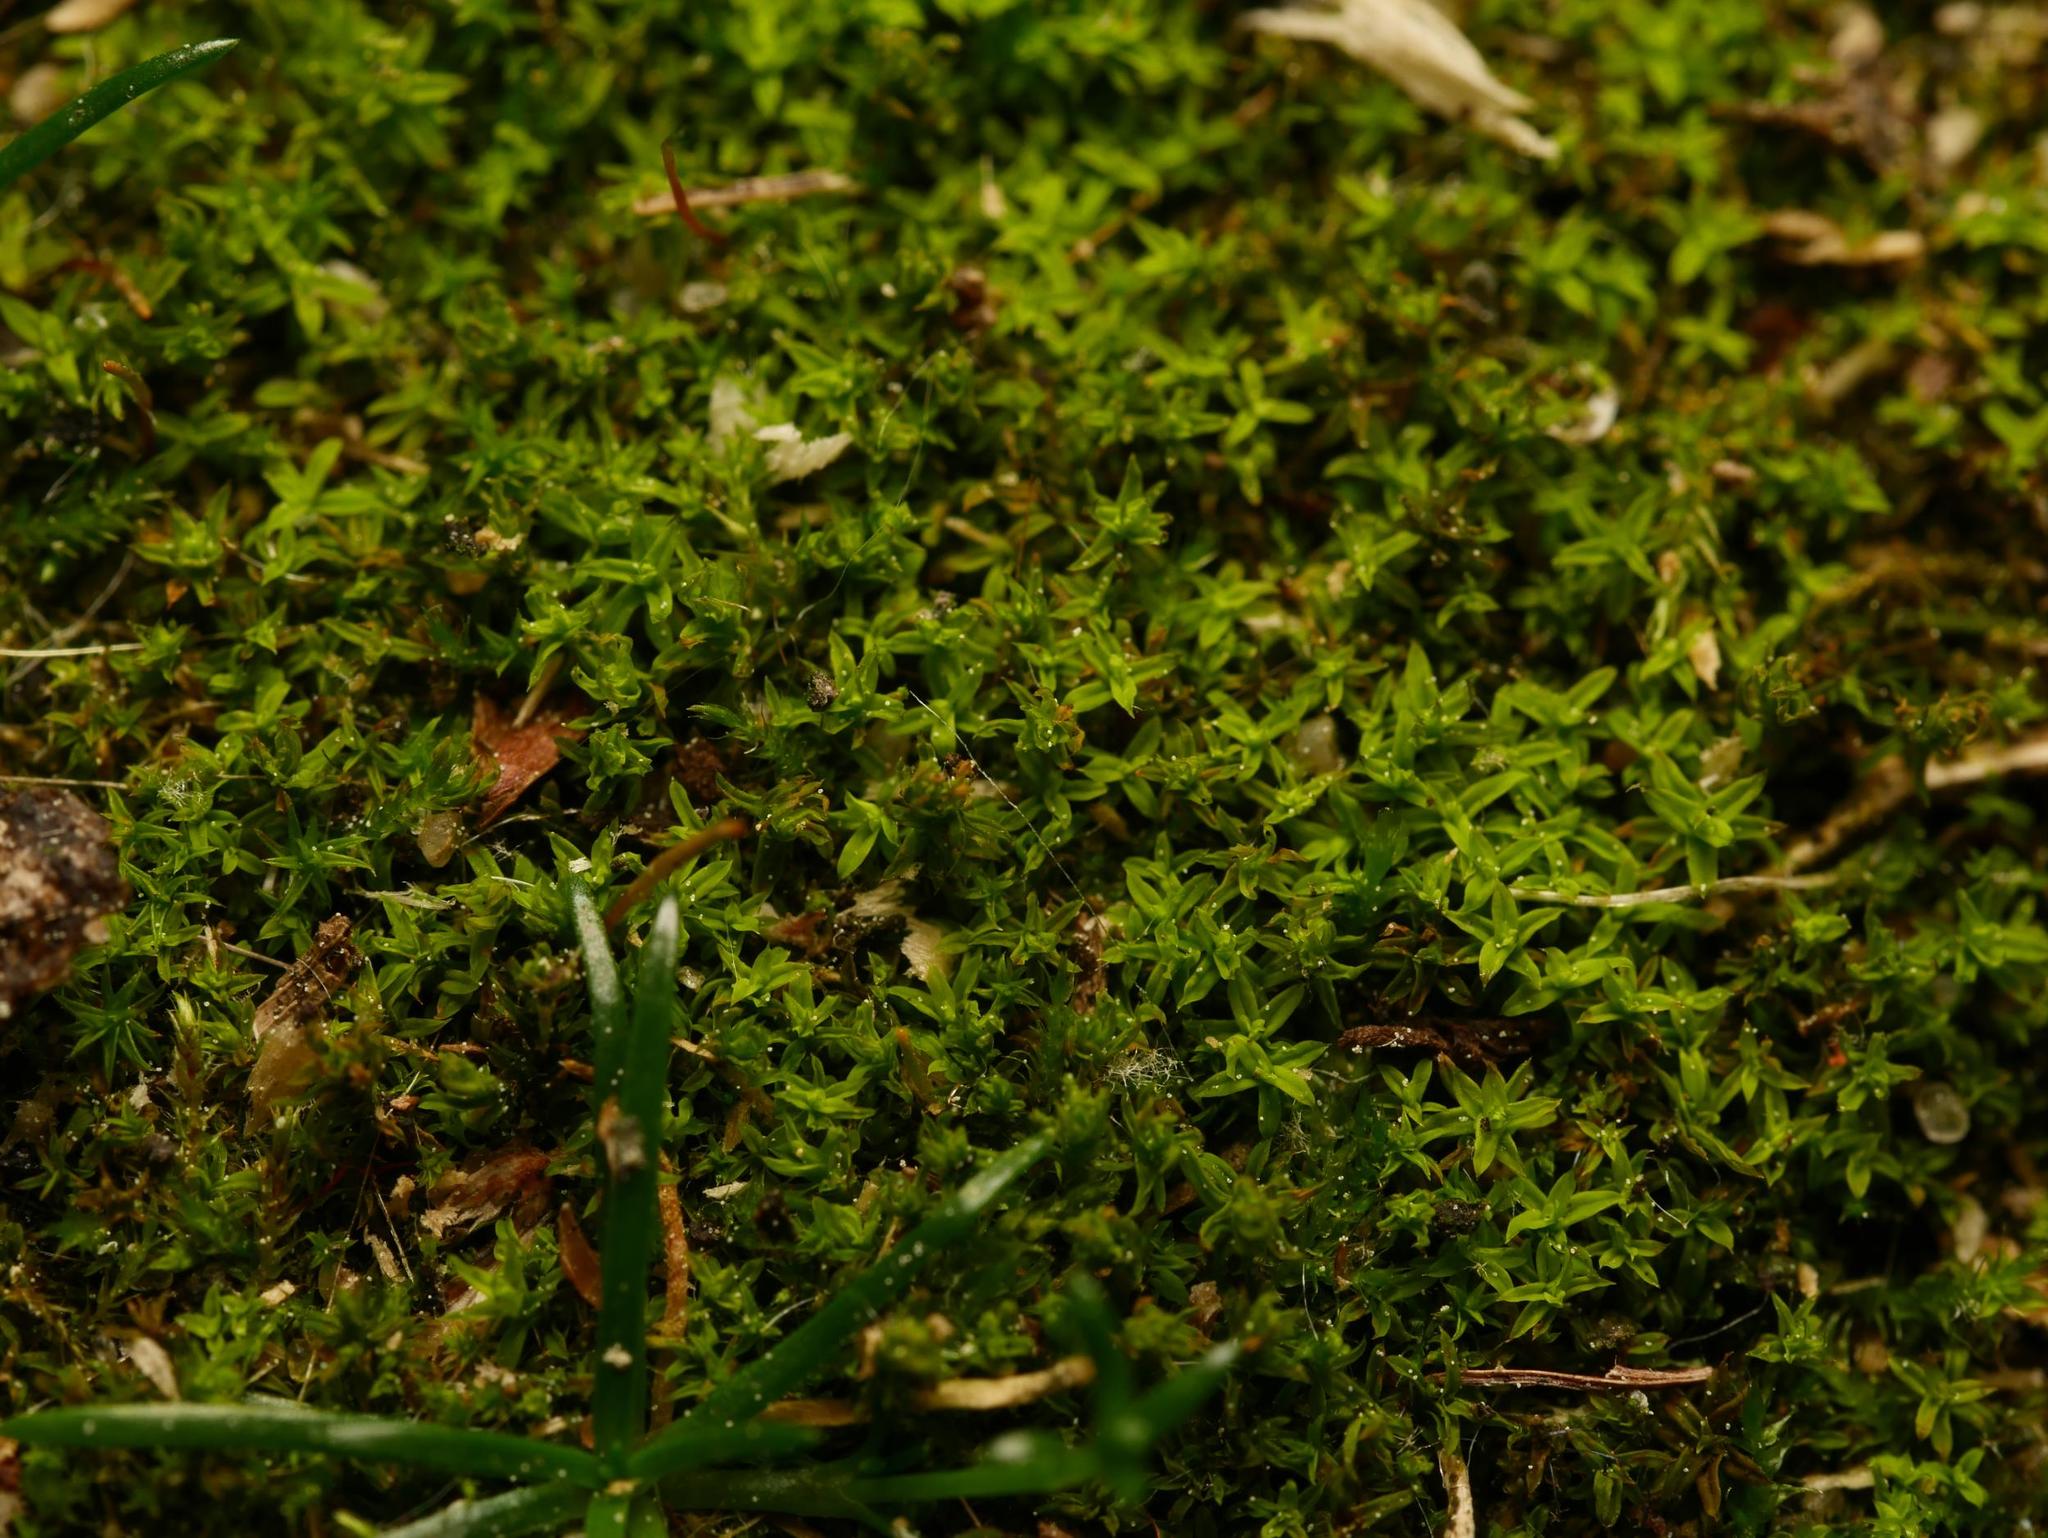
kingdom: Plantae
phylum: Bryophyta
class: Bryopsida
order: Pottiales
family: Pottiaceae
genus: Barbula
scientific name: Barbula unguiculata
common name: Prickly beard moss
